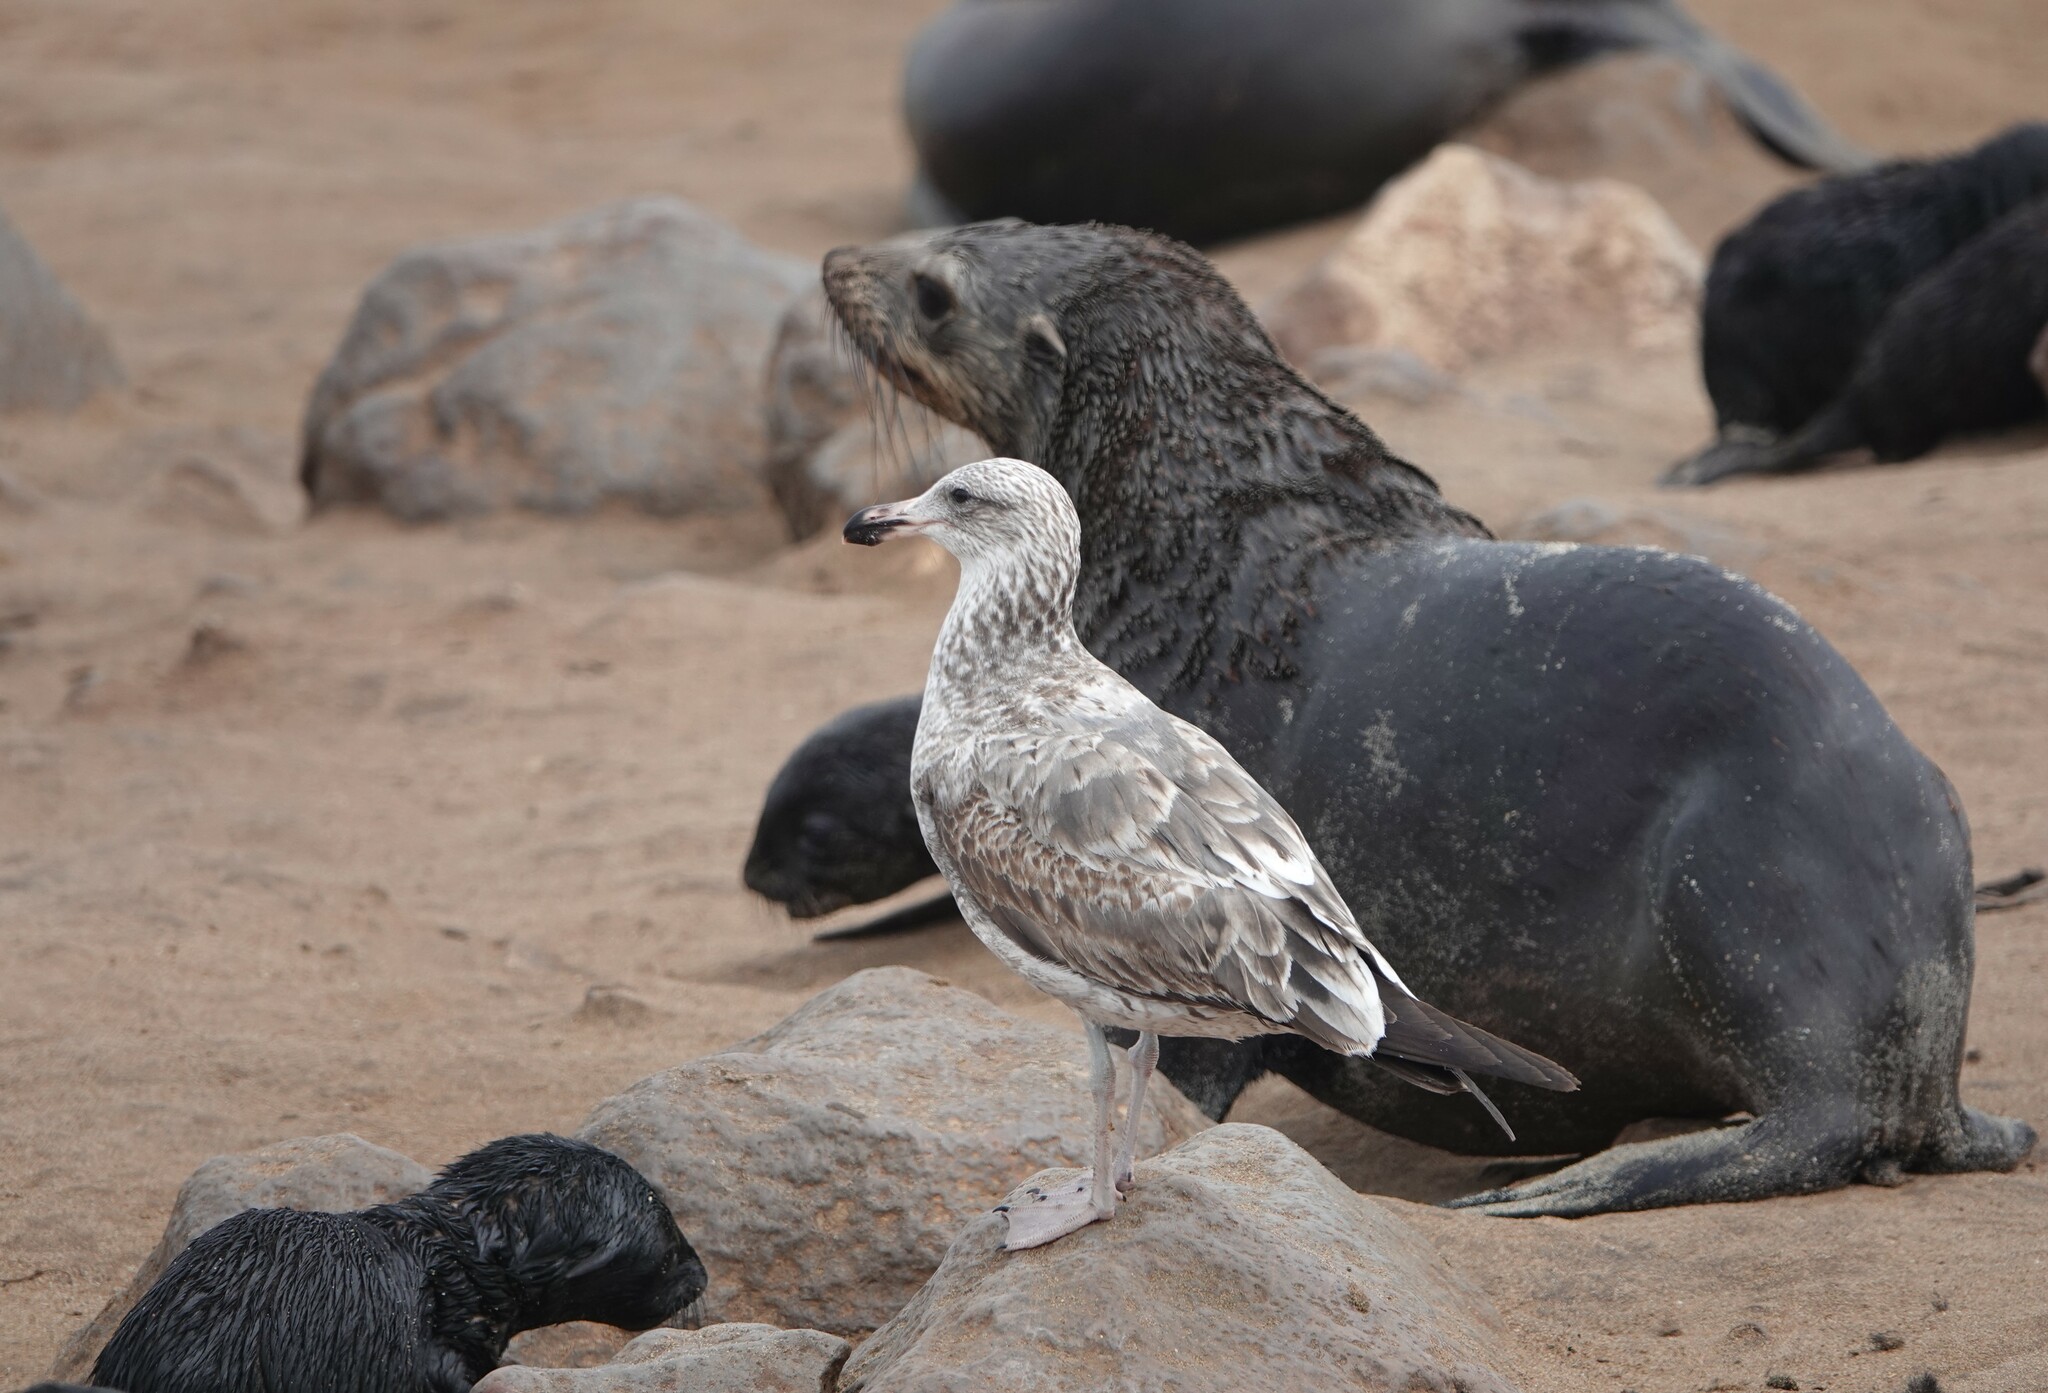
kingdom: Animalia
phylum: Chordata
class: Aves
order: Charadriiformes
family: Laridae
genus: Larus
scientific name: Larus dominicanus
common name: Kelp gull
